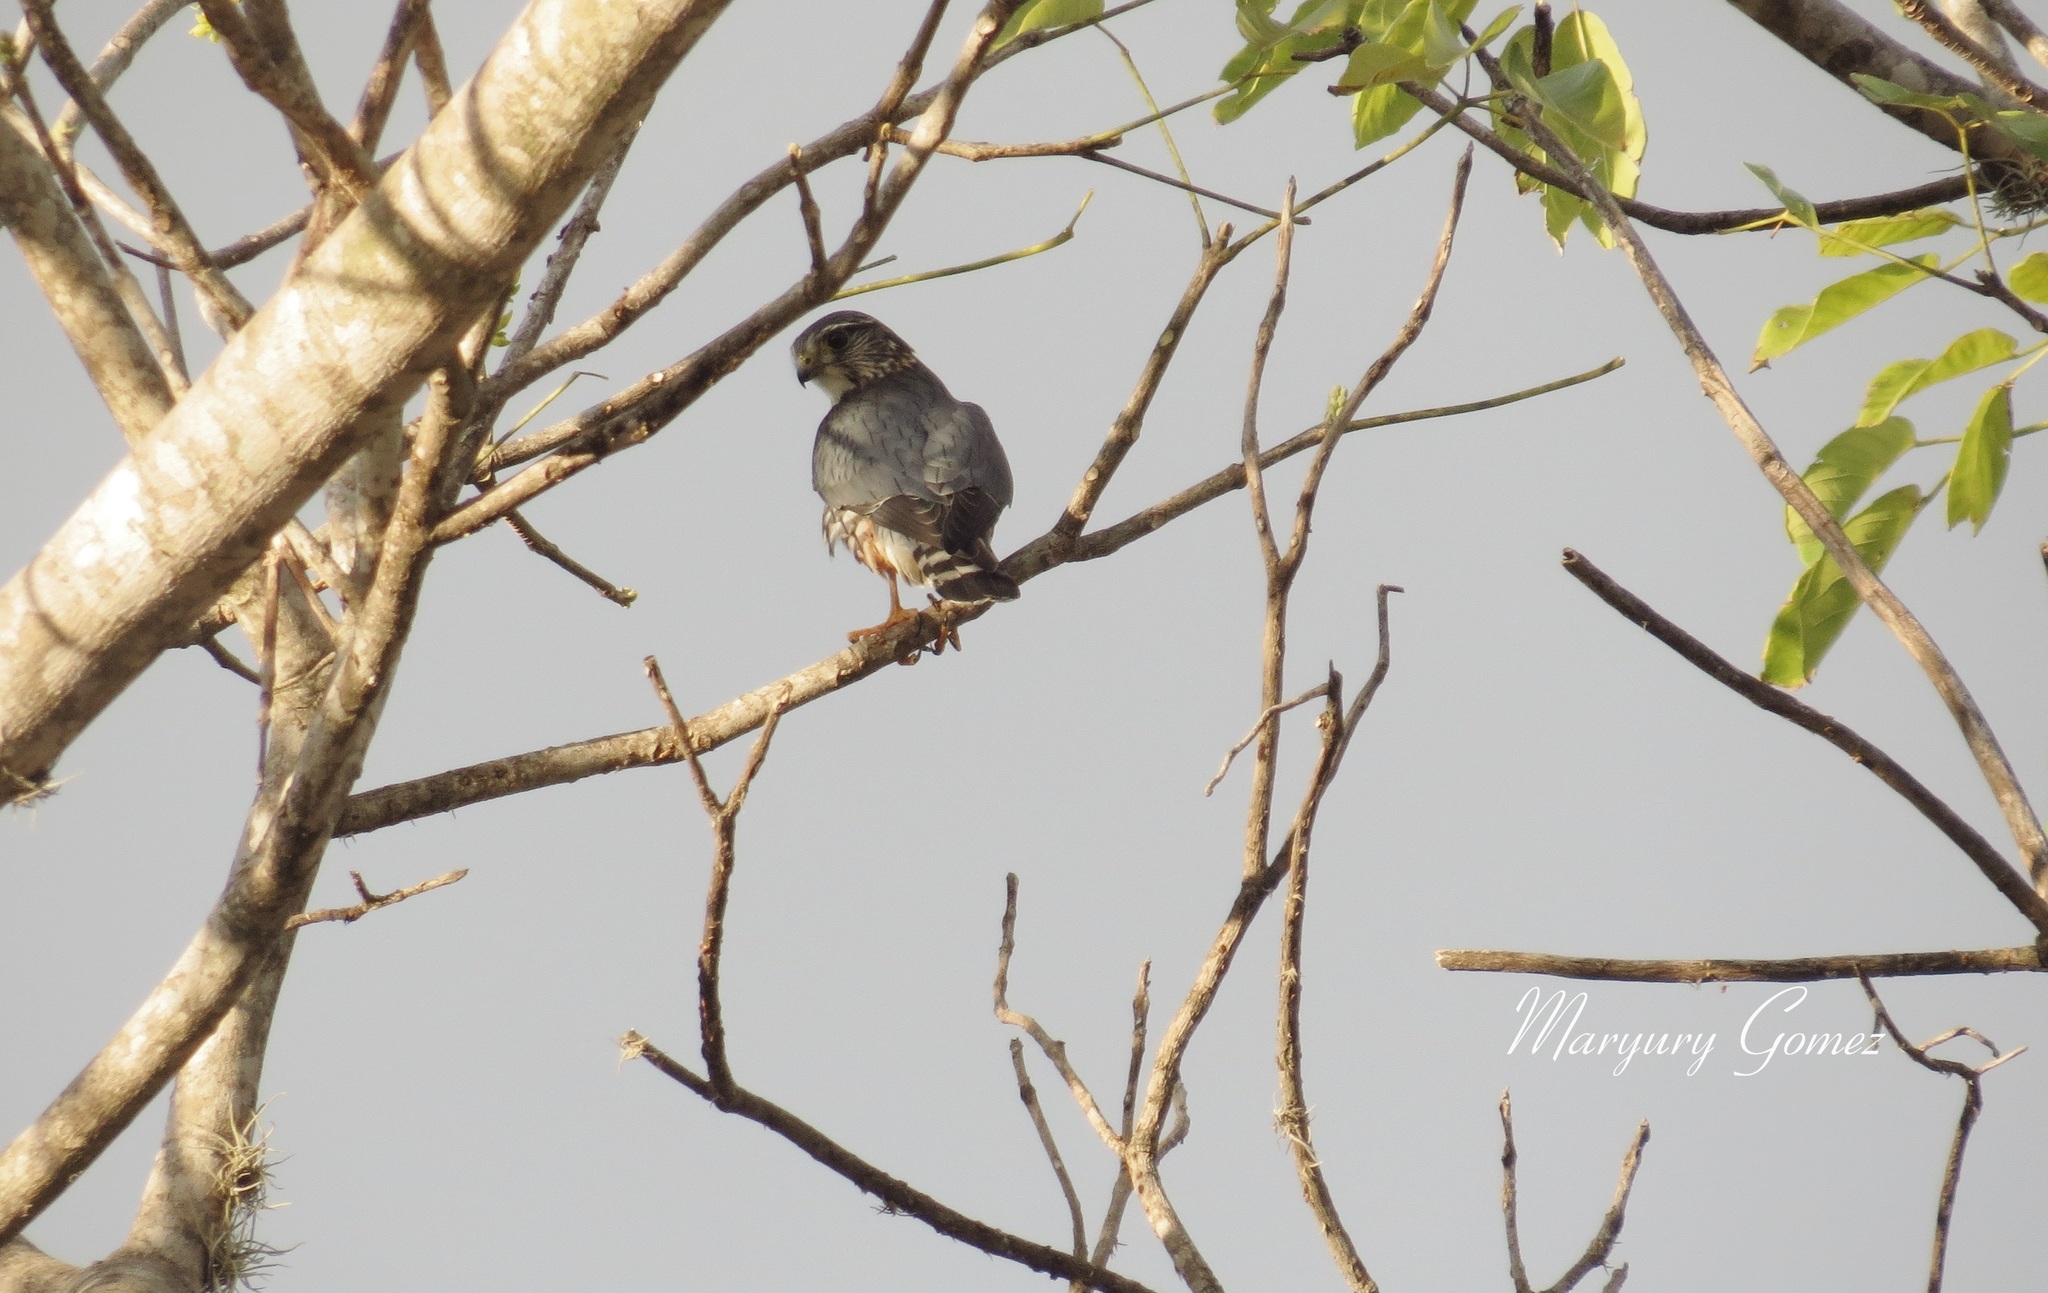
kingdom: Animalia
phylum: Chordata
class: Aves
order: Falconiformes
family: Falconidae
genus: Falco
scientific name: Falco columbarius
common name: Merlin
